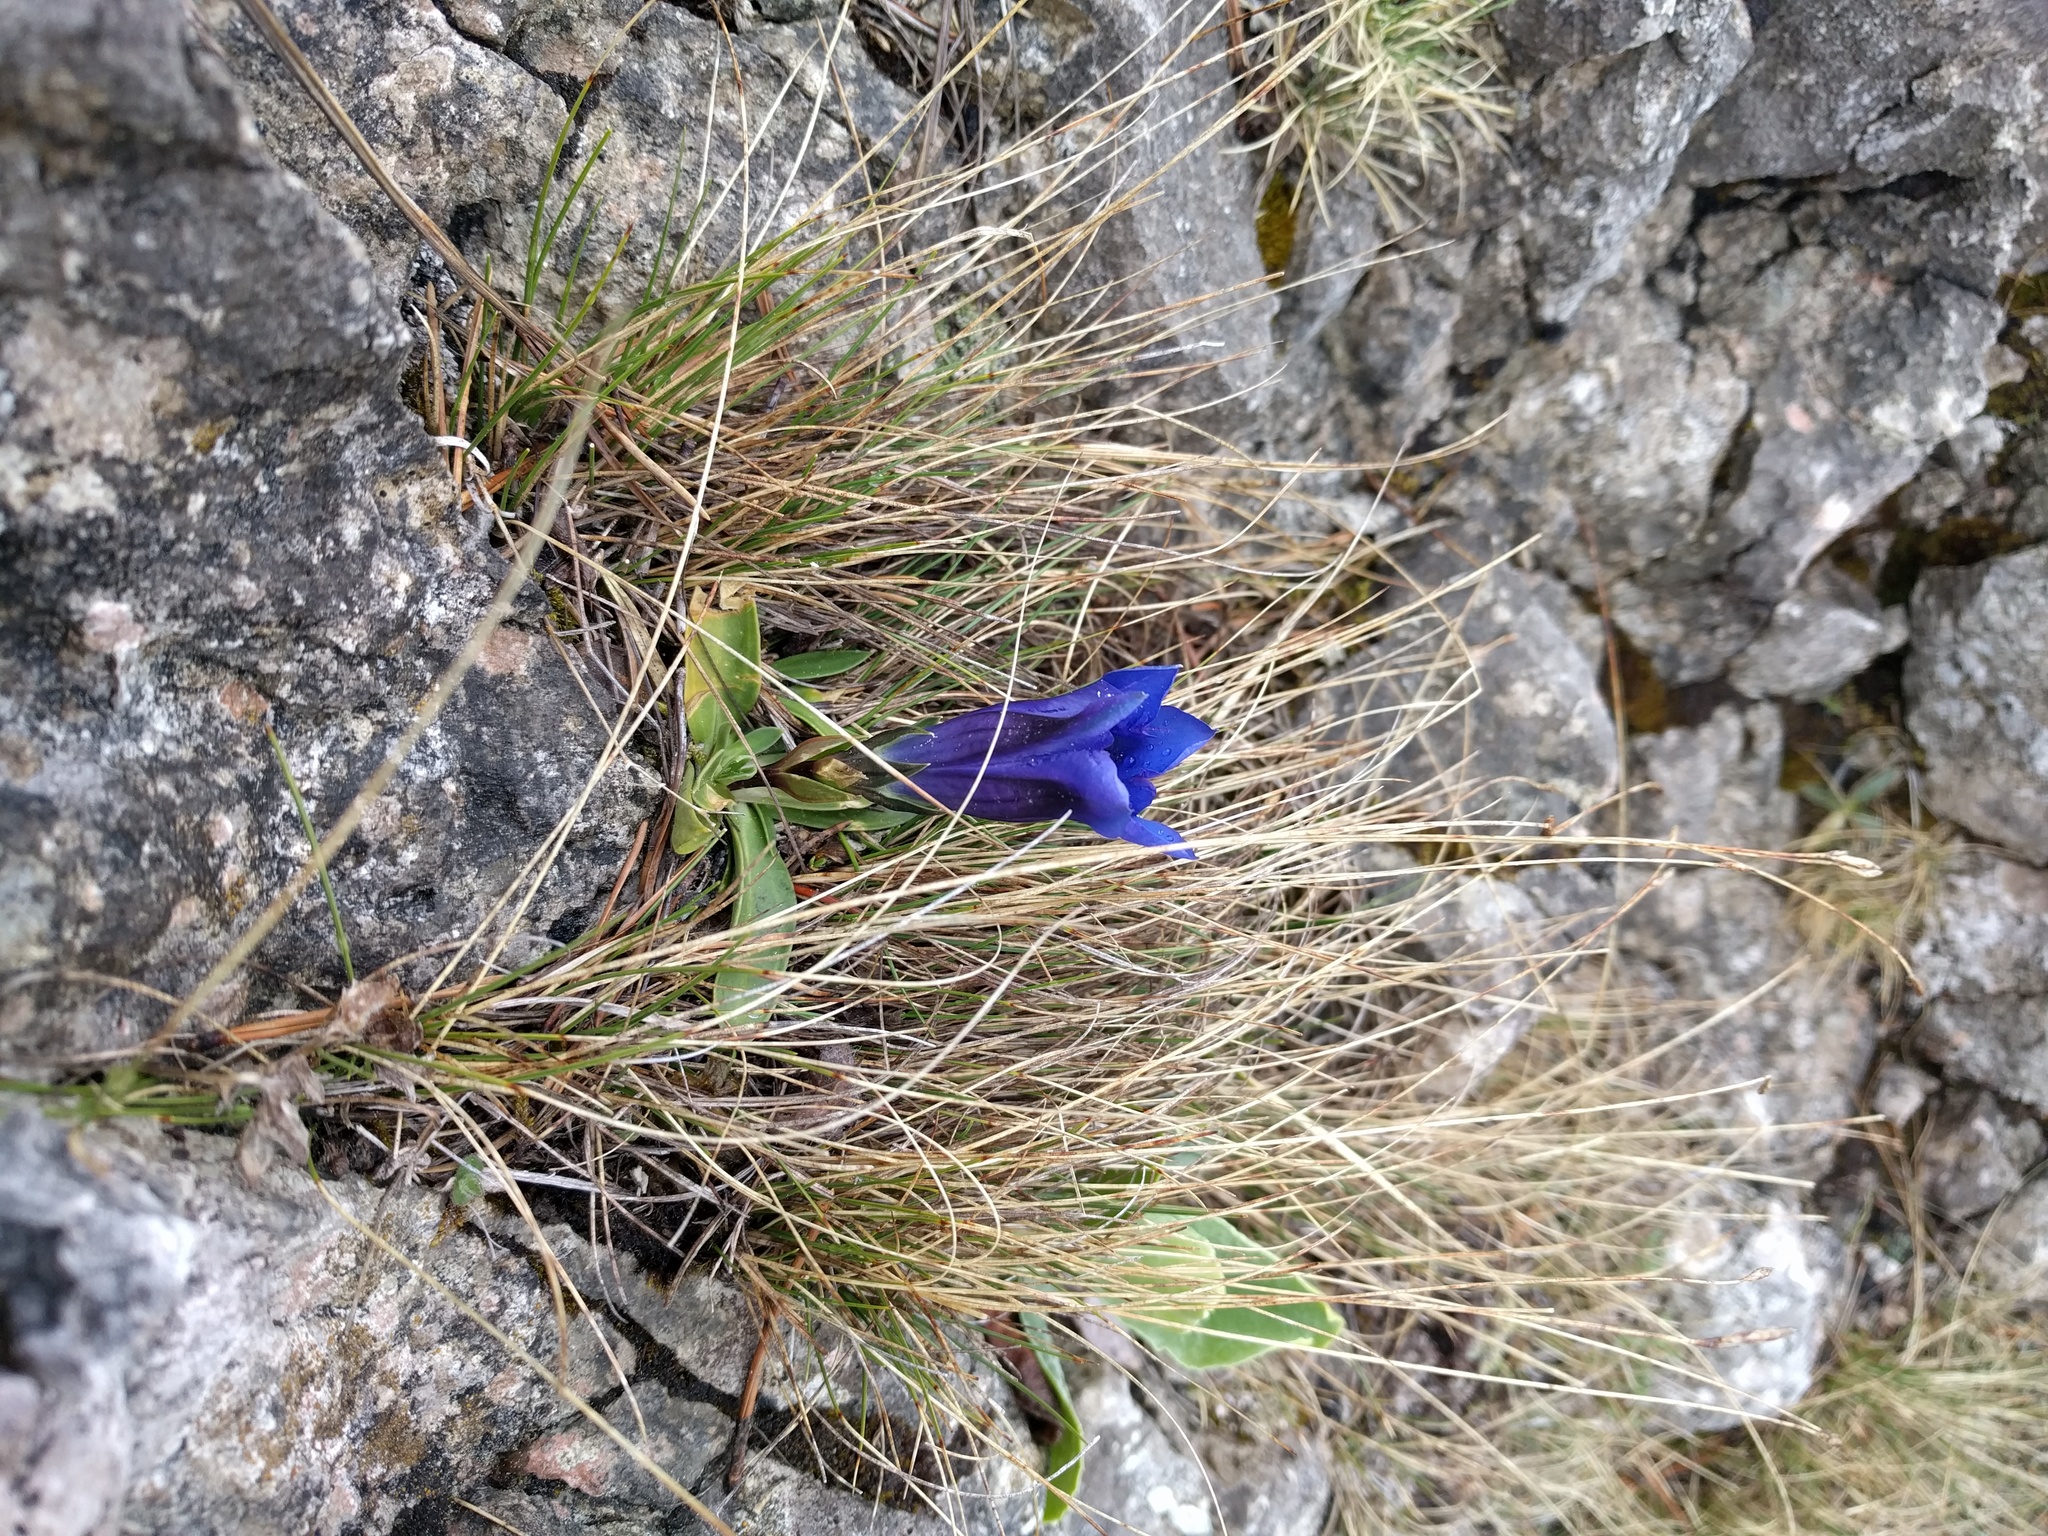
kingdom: Plantae
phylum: Tracheophyta
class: Magnoliopsida
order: Gentianales
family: Gentianaceae
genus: Gentiana
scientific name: Gentiana clusii
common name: Trumpet gentian
